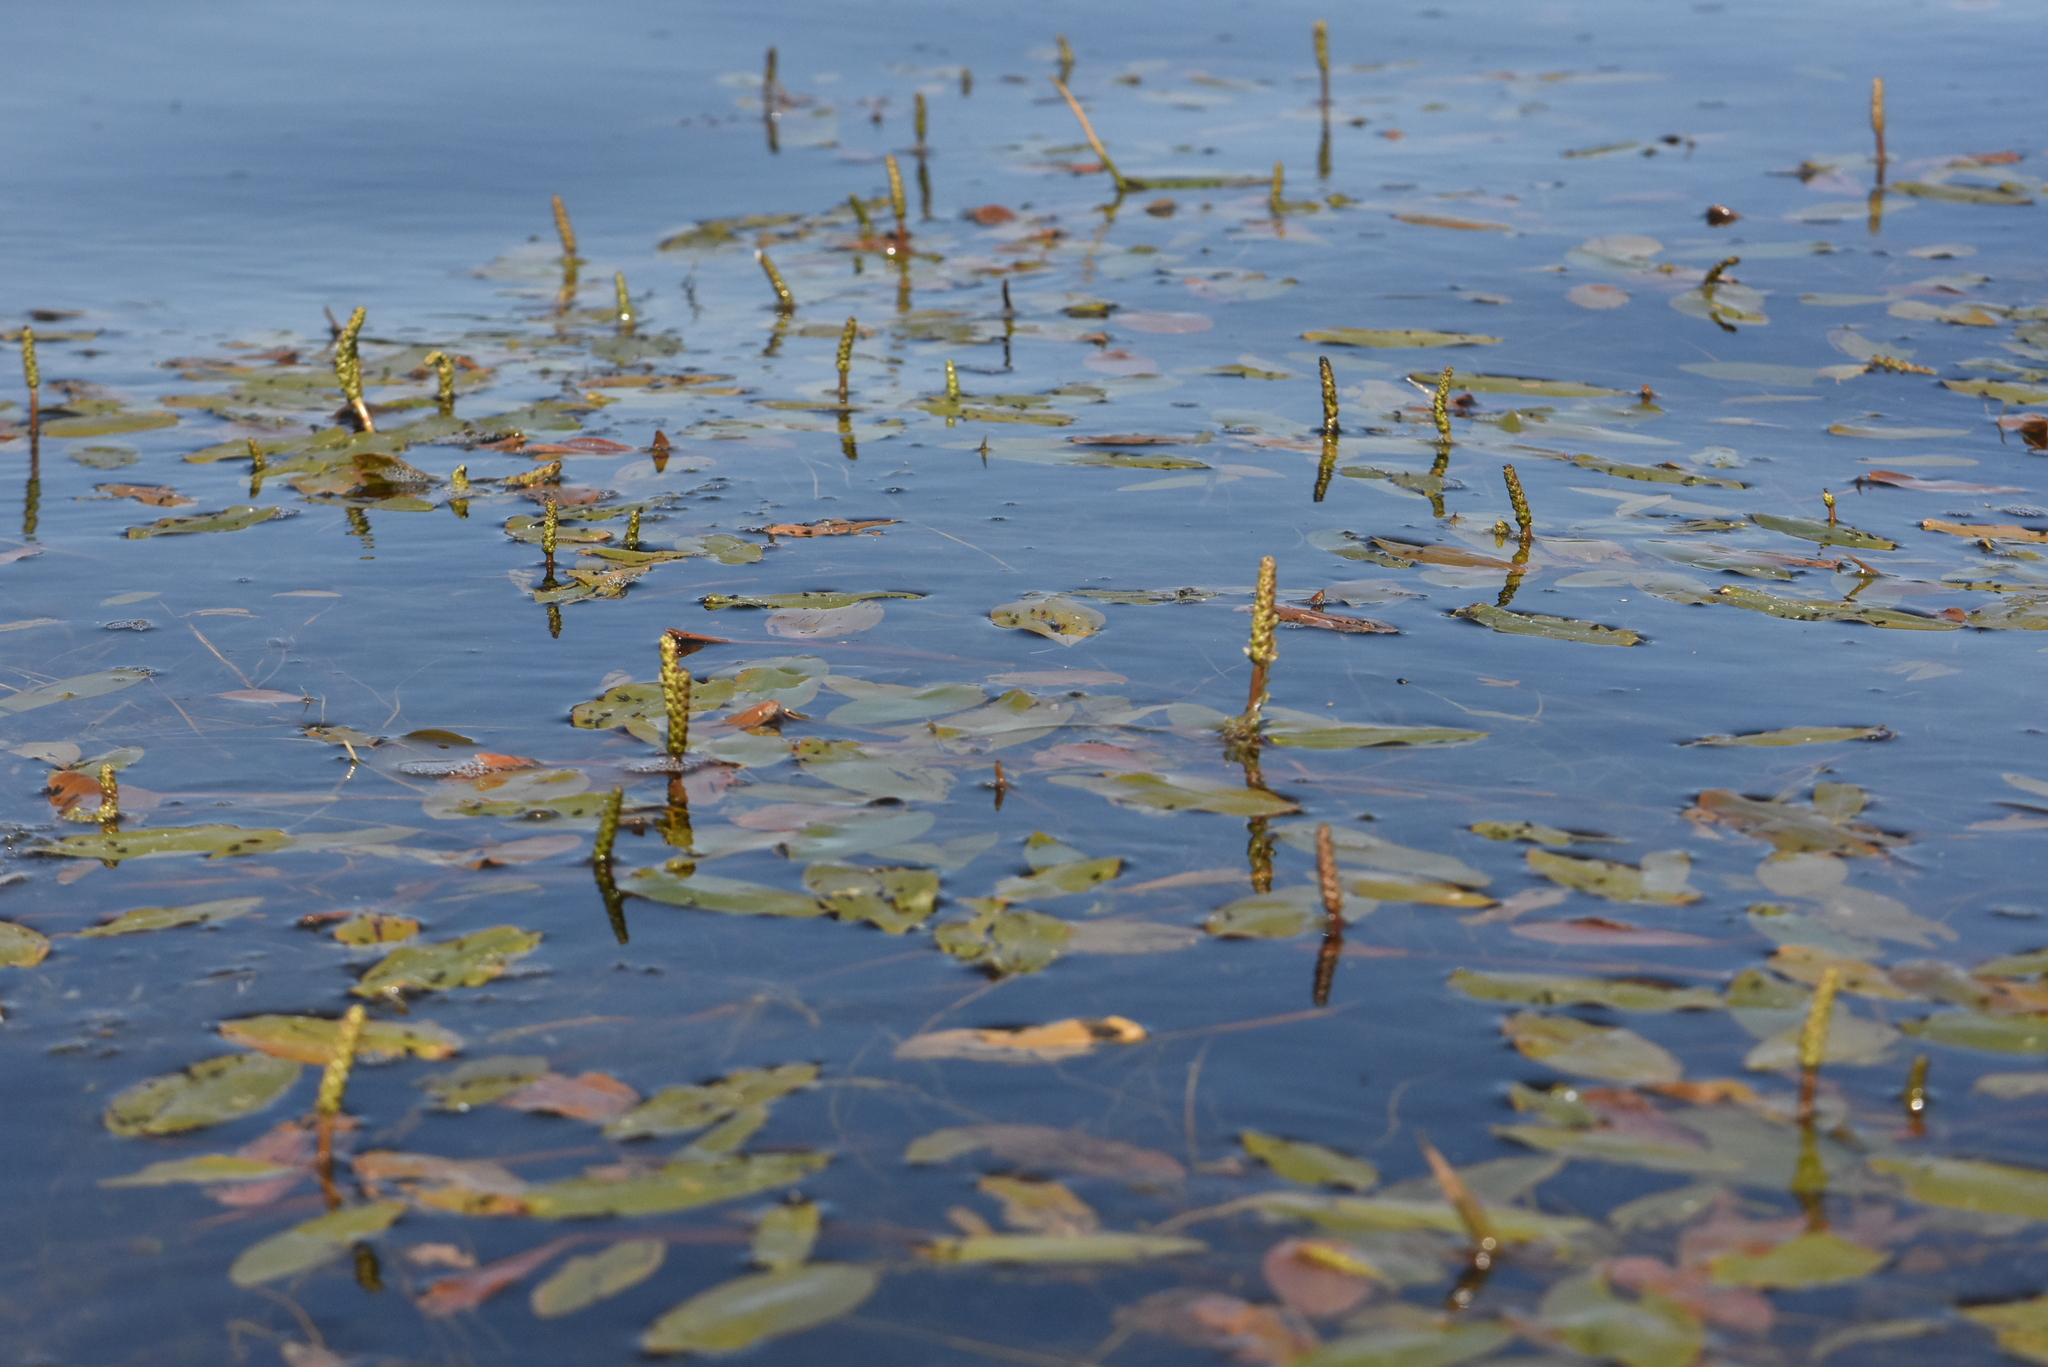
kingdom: Plantae
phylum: Tracheophyta
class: Liliopsida
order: Alismatales
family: Potamogetonaceae
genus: Potamogeton
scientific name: Potamogeton natans
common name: Broad-leaved pondweed
